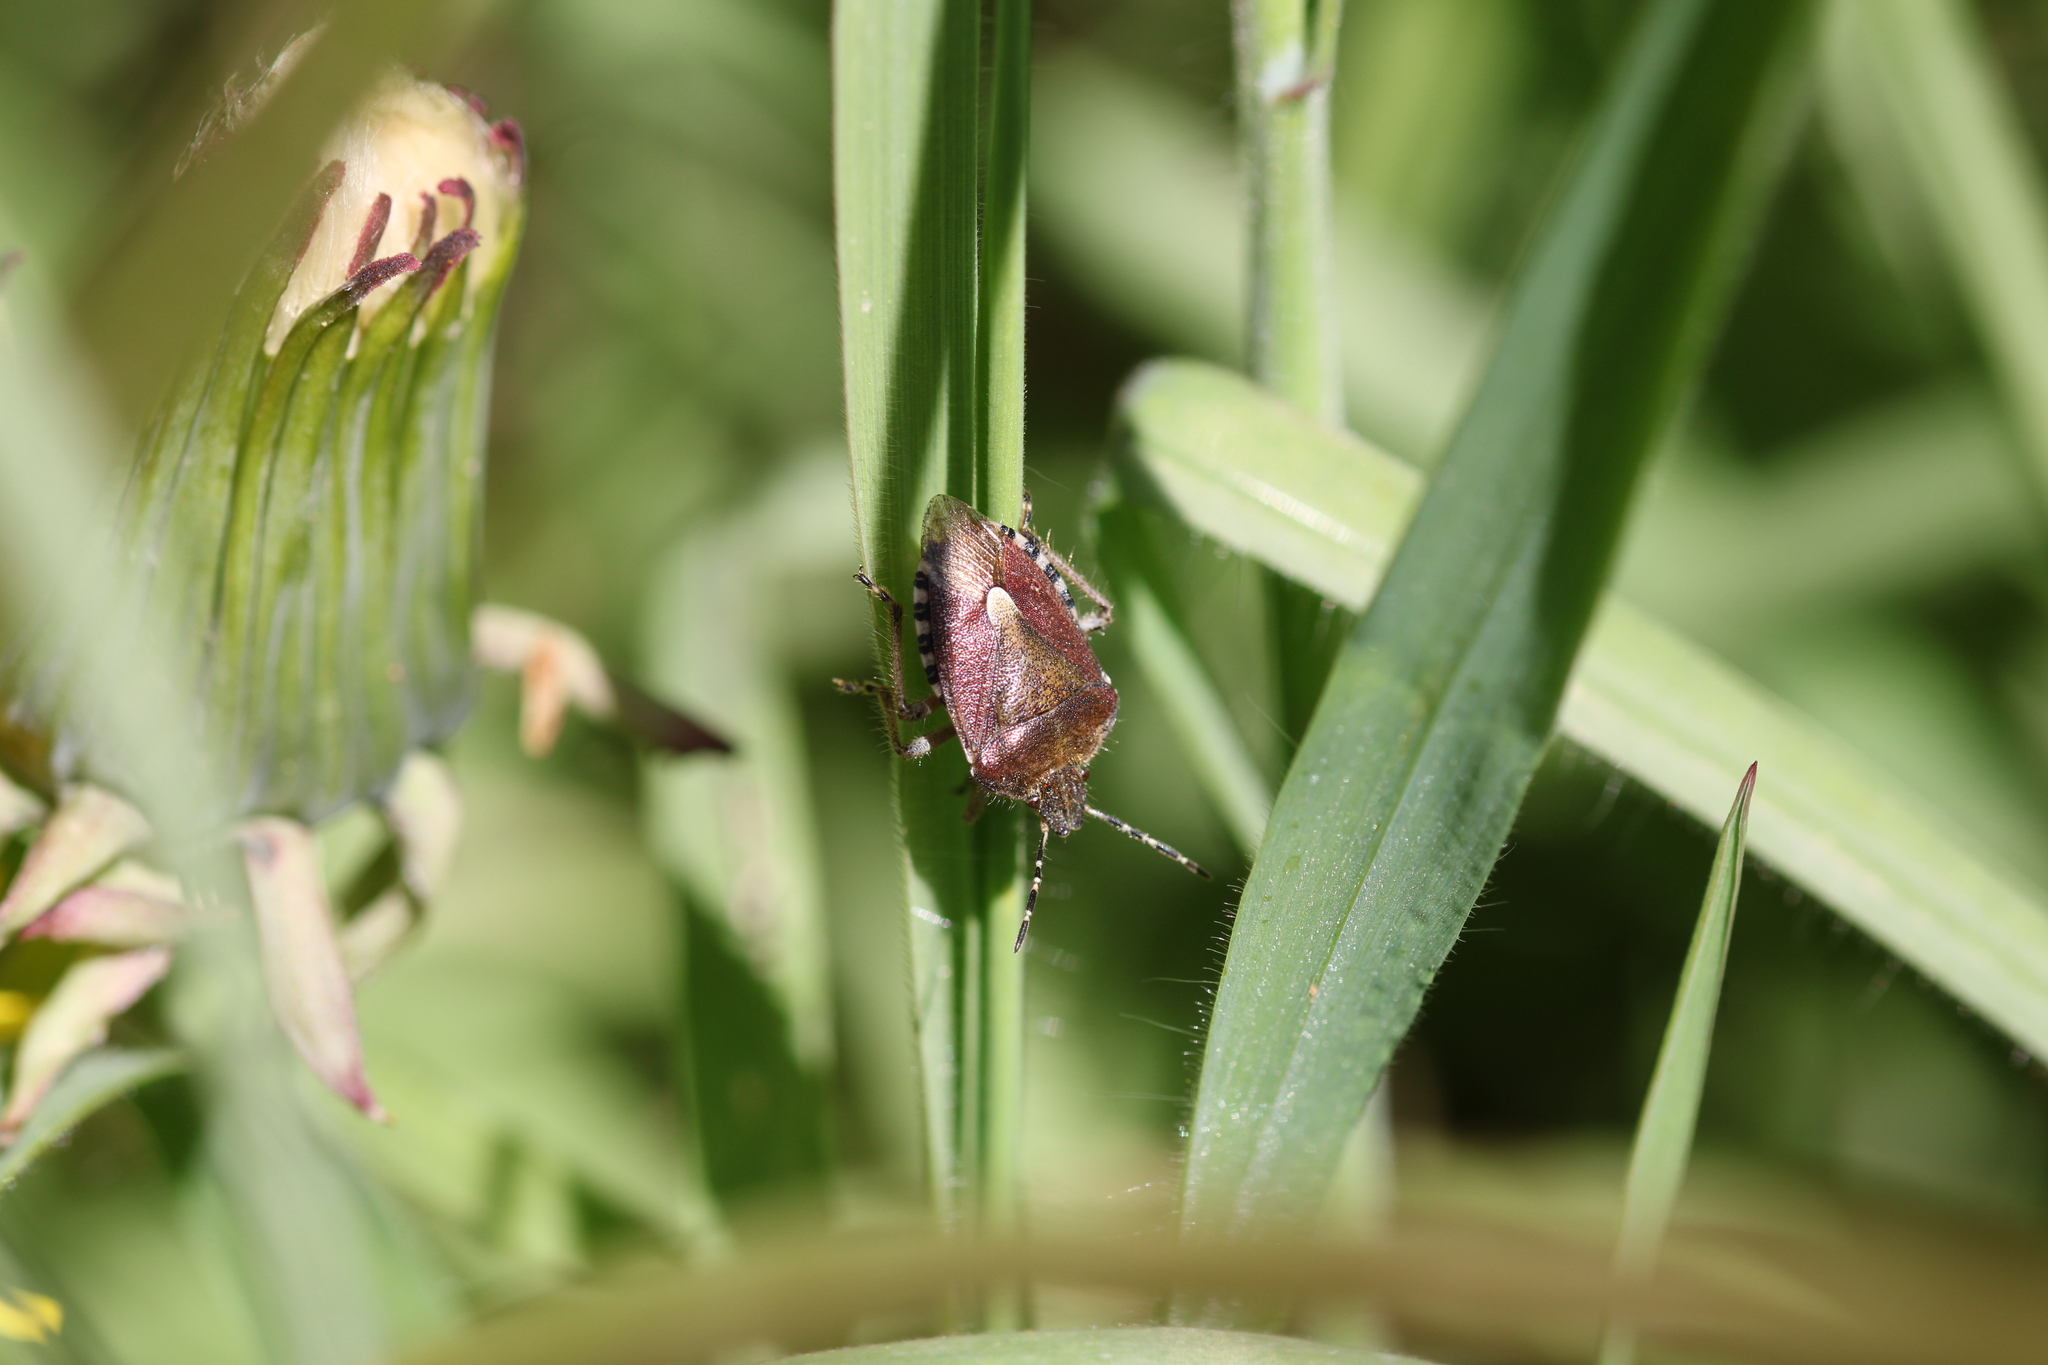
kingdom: Animalia
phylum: Arthropoda
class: Insecta
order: Hemiptera
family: Pentatomidae
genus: Dolycoris
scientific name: Dolycoris baccarum
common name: Sloe bug
